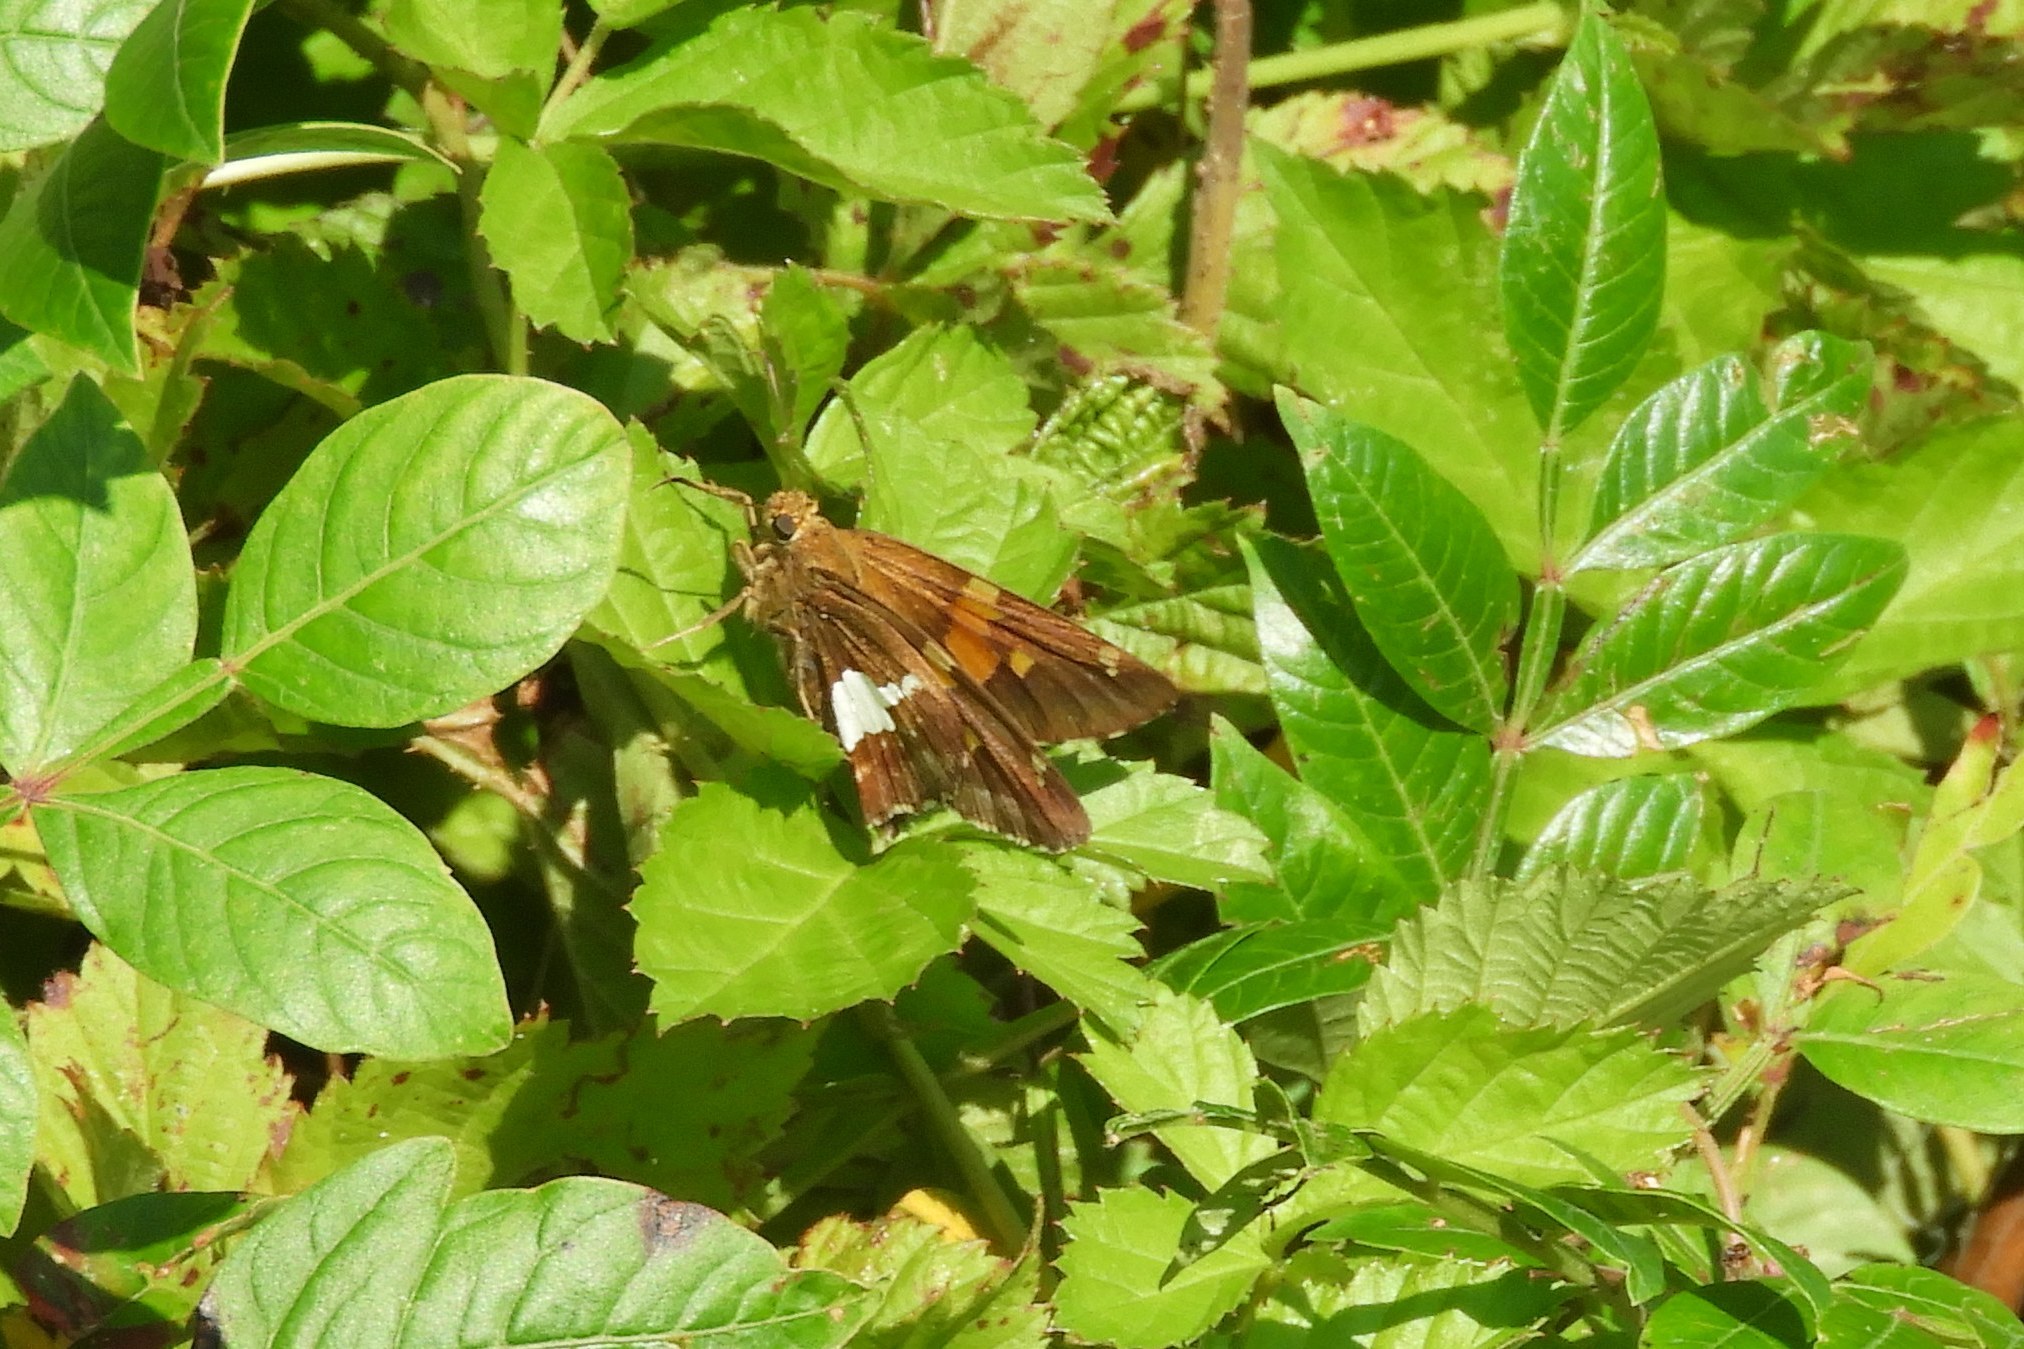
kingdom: Animalia
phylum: Arthropoda
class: Insecta
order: Lepidoptera
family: Hesperiidae
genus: Epargyreus
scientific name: Epargyreus clarus
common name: Silver-spotted skipper
